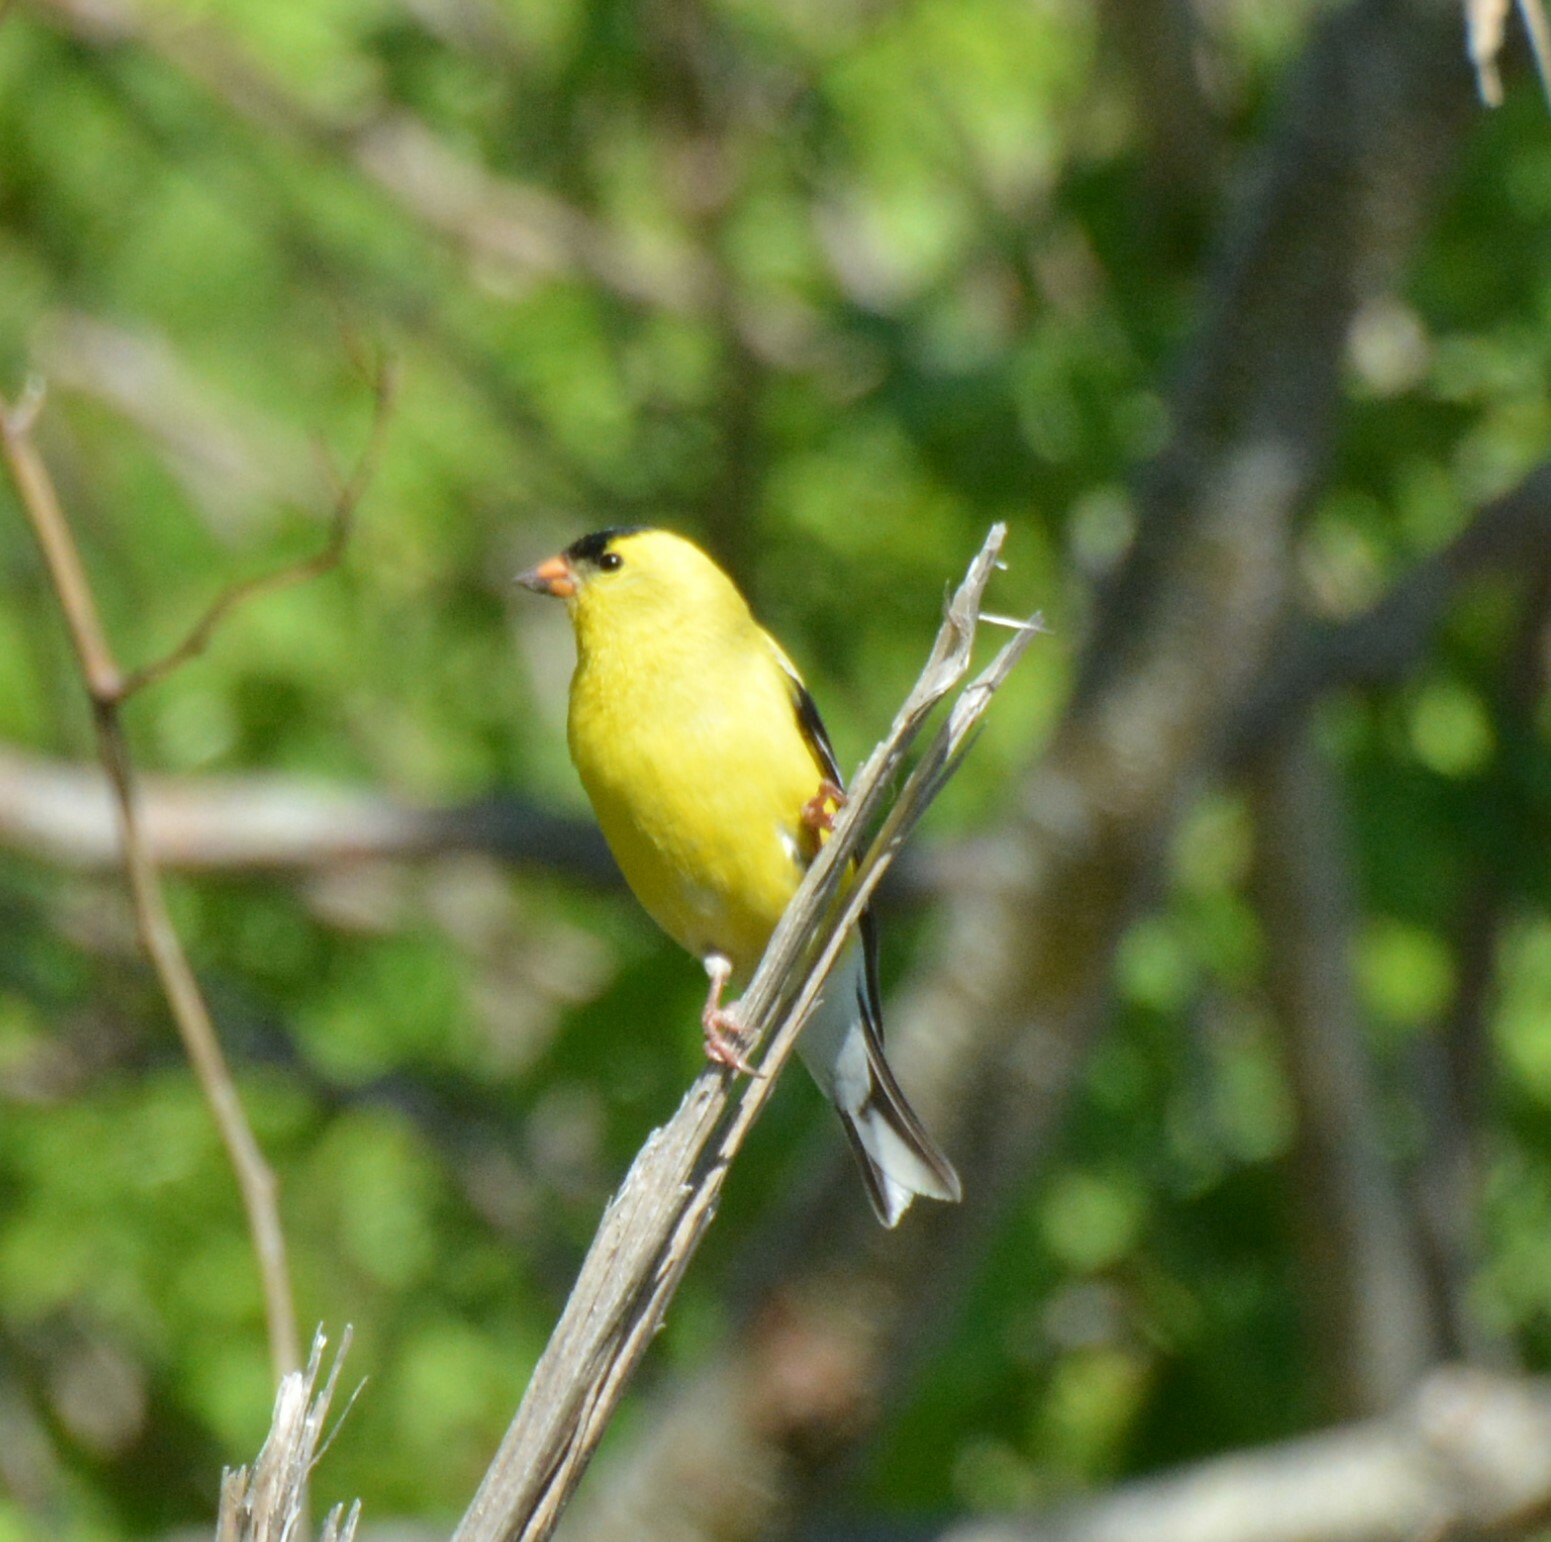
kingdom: Animalia
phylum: Chordata
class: Aves
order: Passeriformes
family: Fringillidae
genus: Spinus
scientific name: Spinus tristis
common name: American goldfinch
